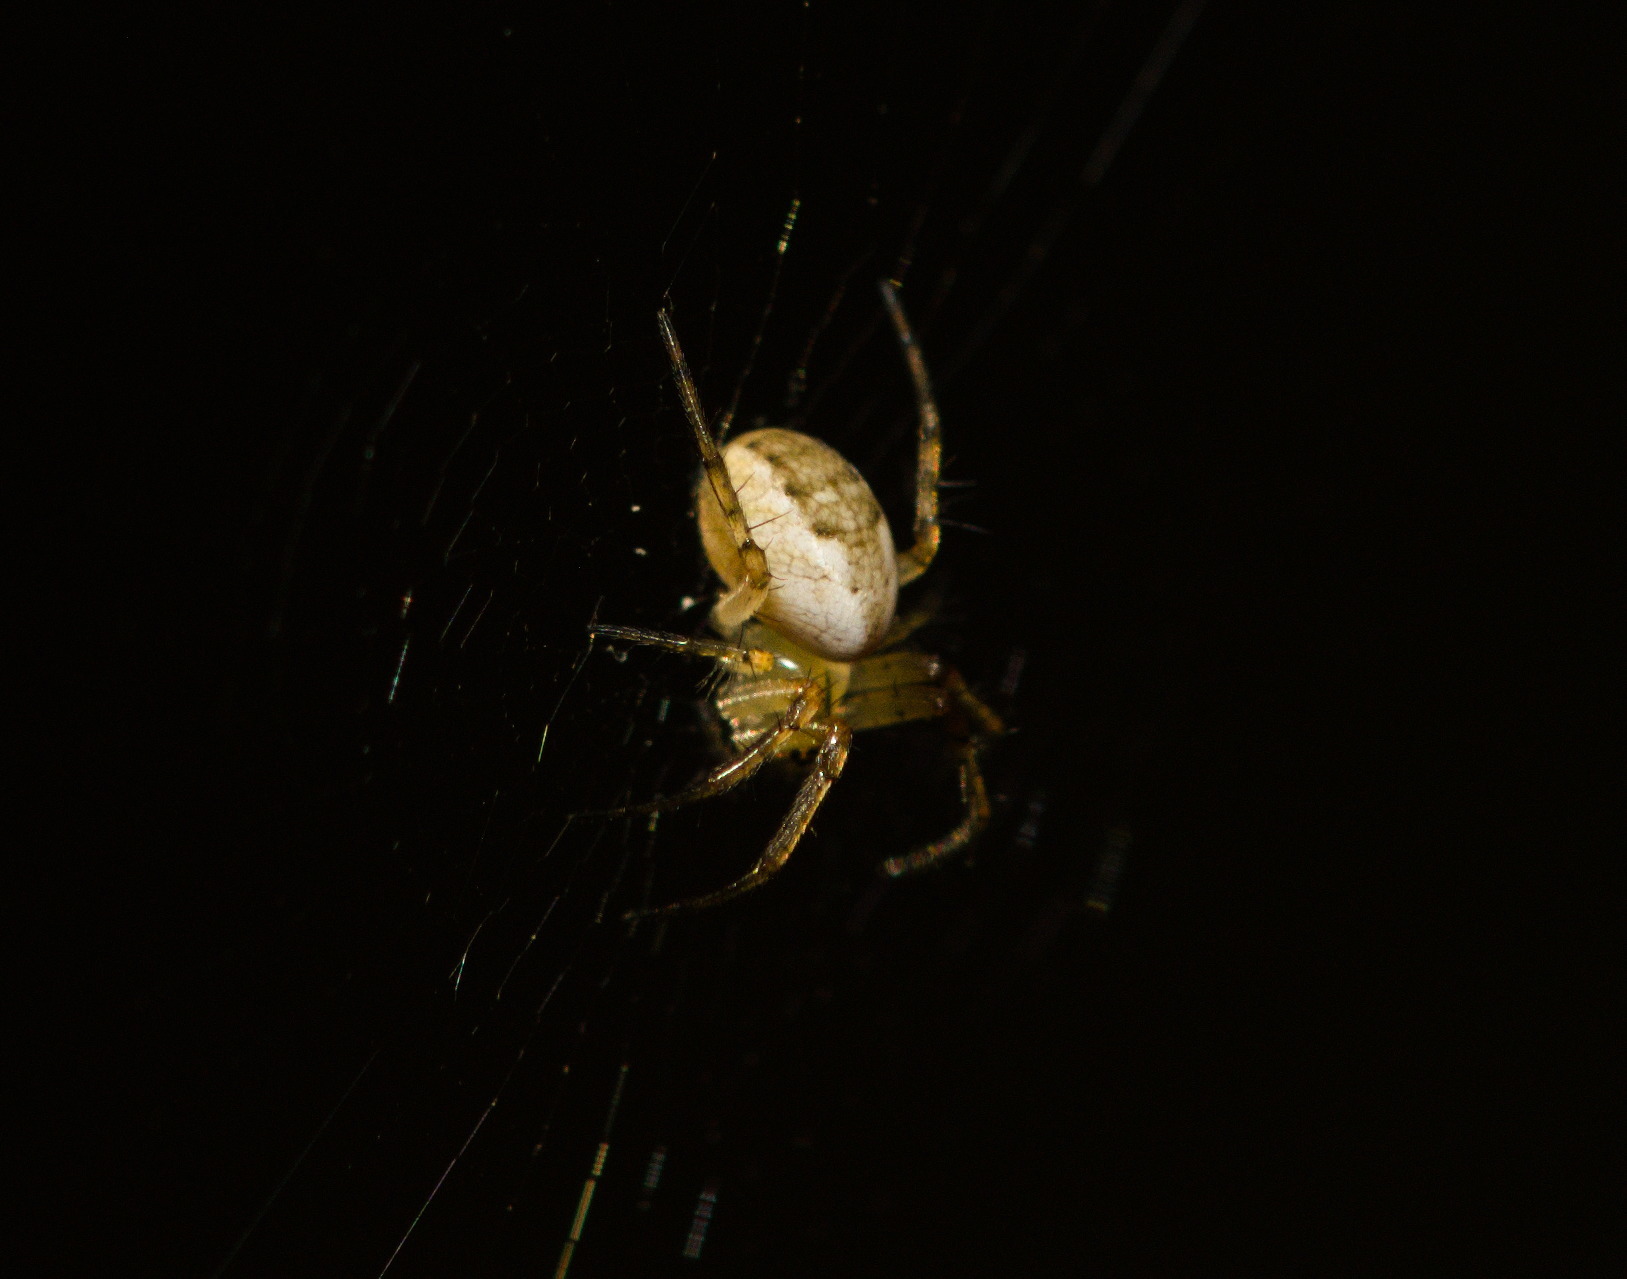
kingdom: Animalia
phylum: Arthropoda
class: Arachnida
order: Araneae
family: Araneidae
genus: Mangora
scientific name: Mangora placida
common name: Tuft-legged orbweaver
